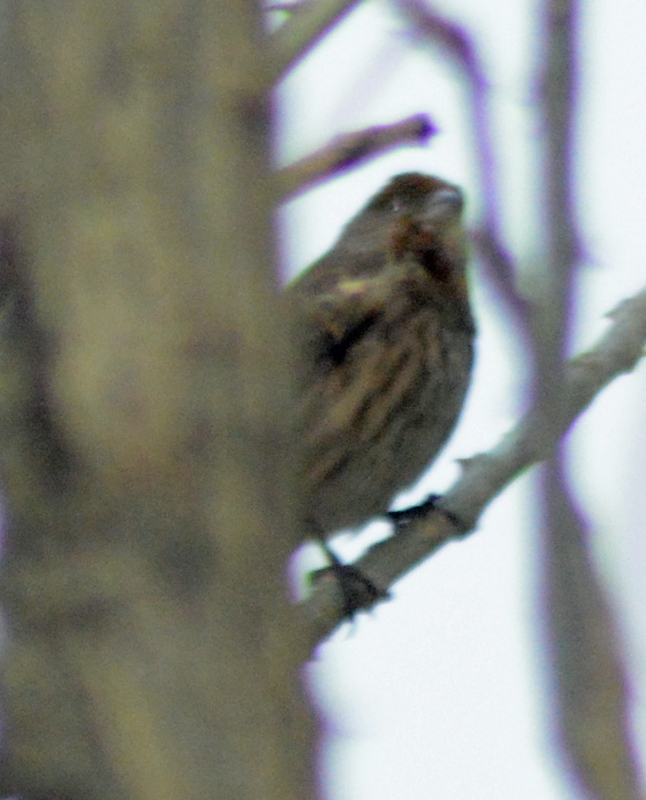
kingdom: Animalia
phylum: Chordata
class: Aves
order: Passeriformes
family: Fringillidae
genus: Haemorhous
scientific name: Haemorhous mexicanus
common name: House finch
